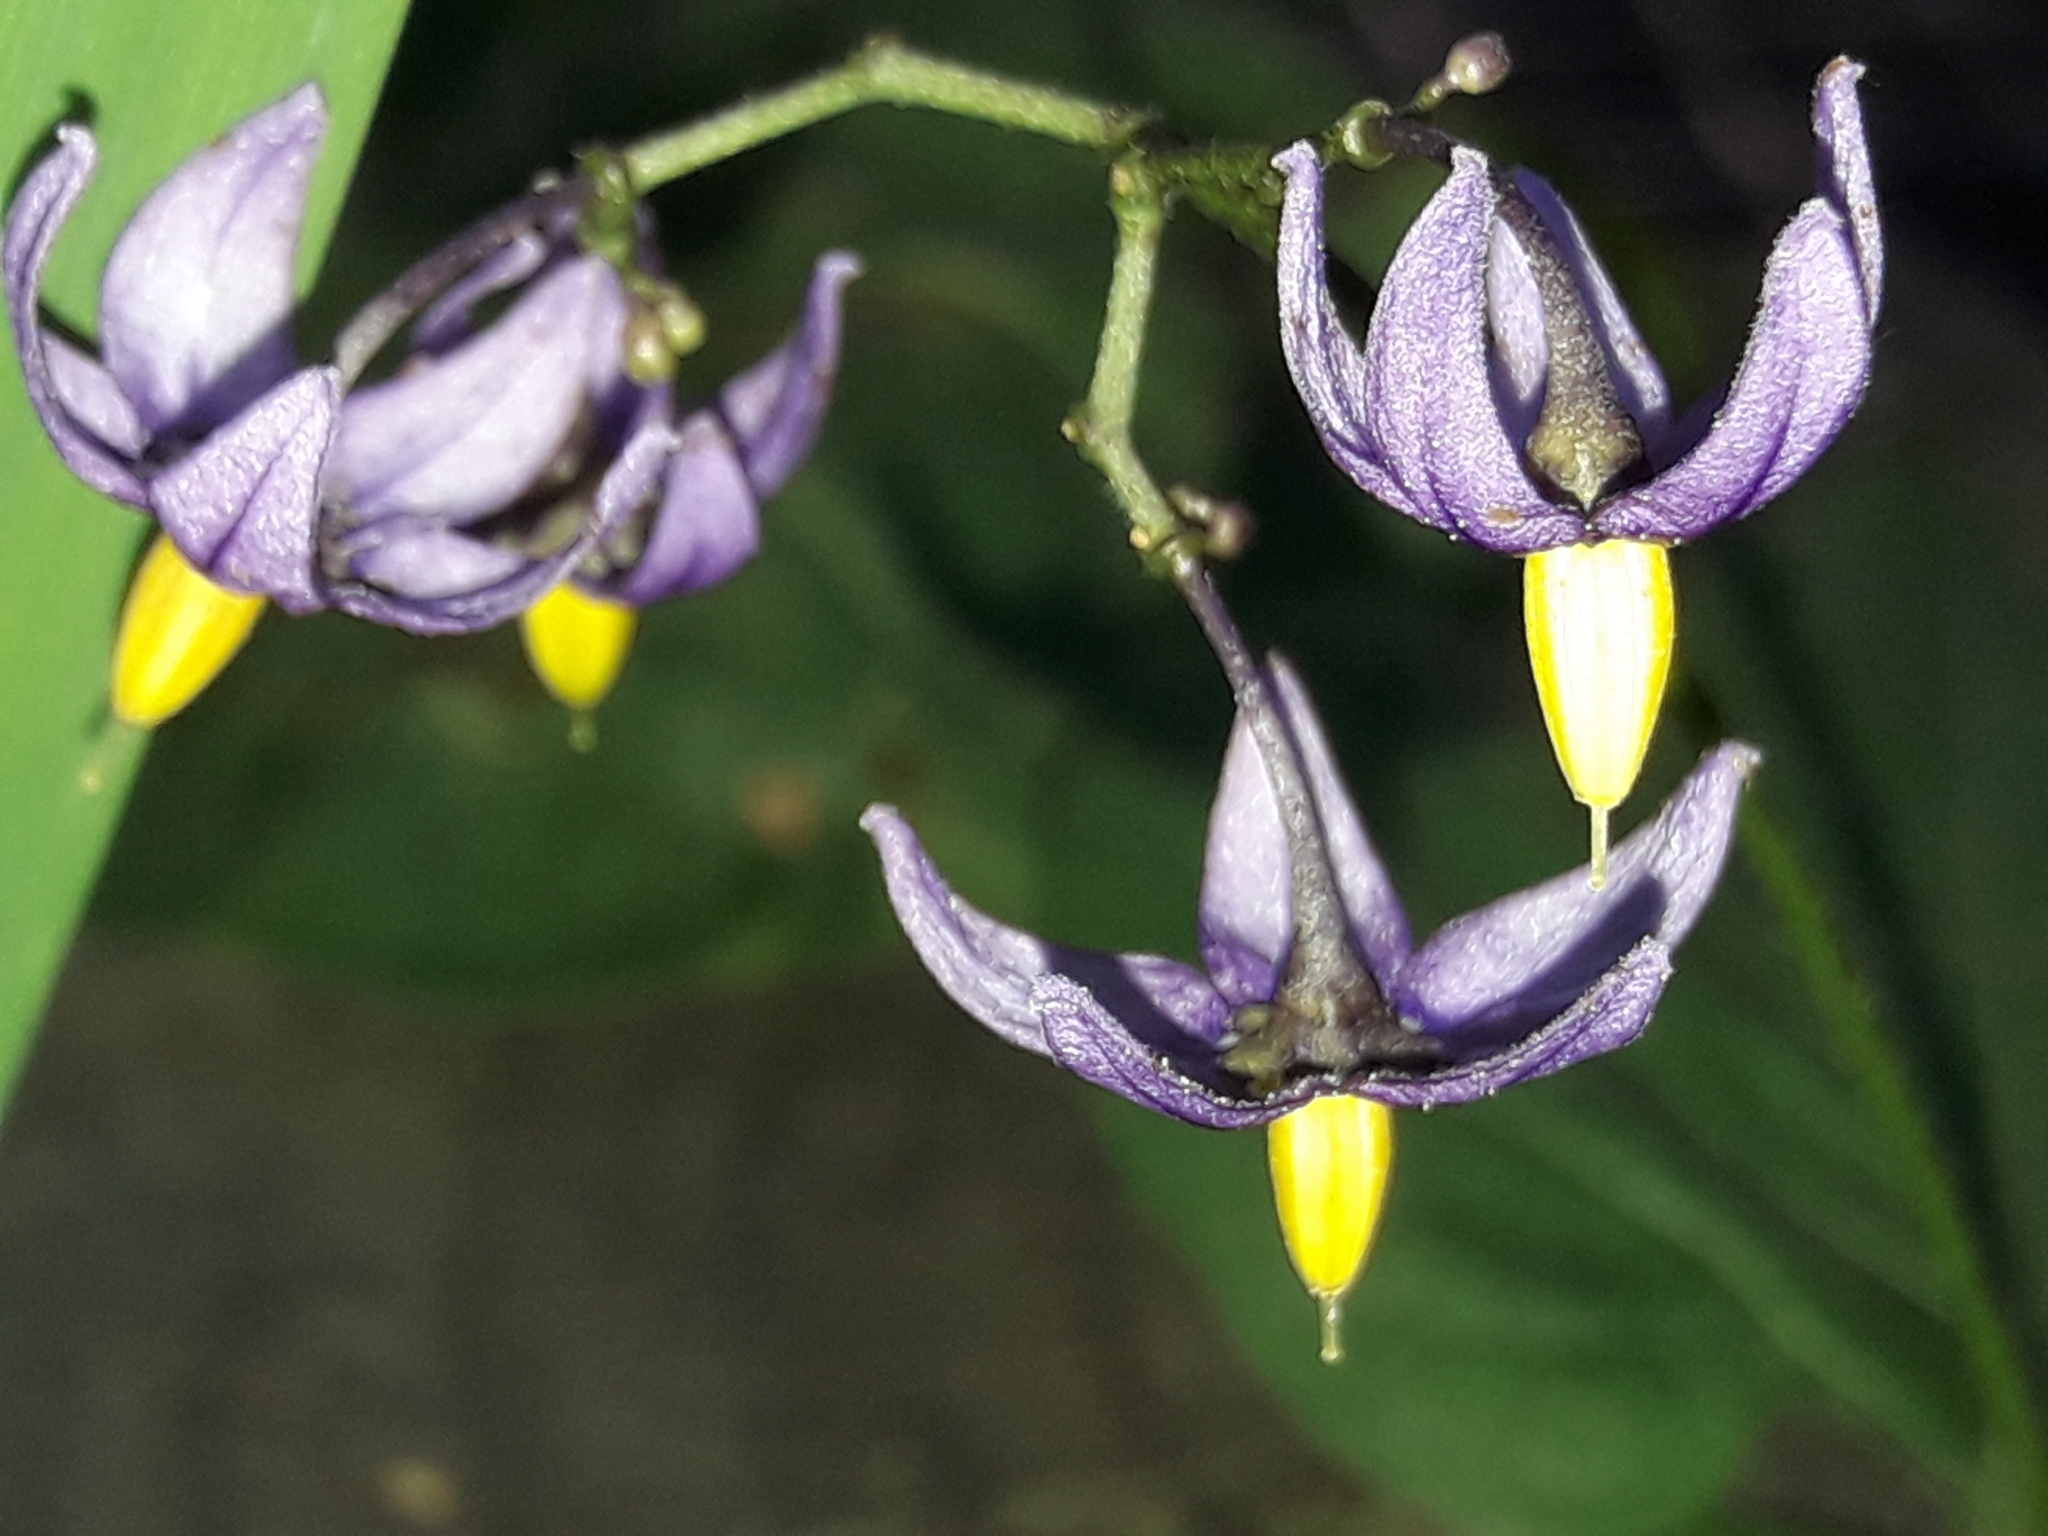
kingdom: Plantae
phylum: Tracheophyta
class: Magnoliopsida
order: Solanales
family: Solanaceae
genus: Solanum
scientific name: Solanum dulcamara
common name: Climbing nightshade
